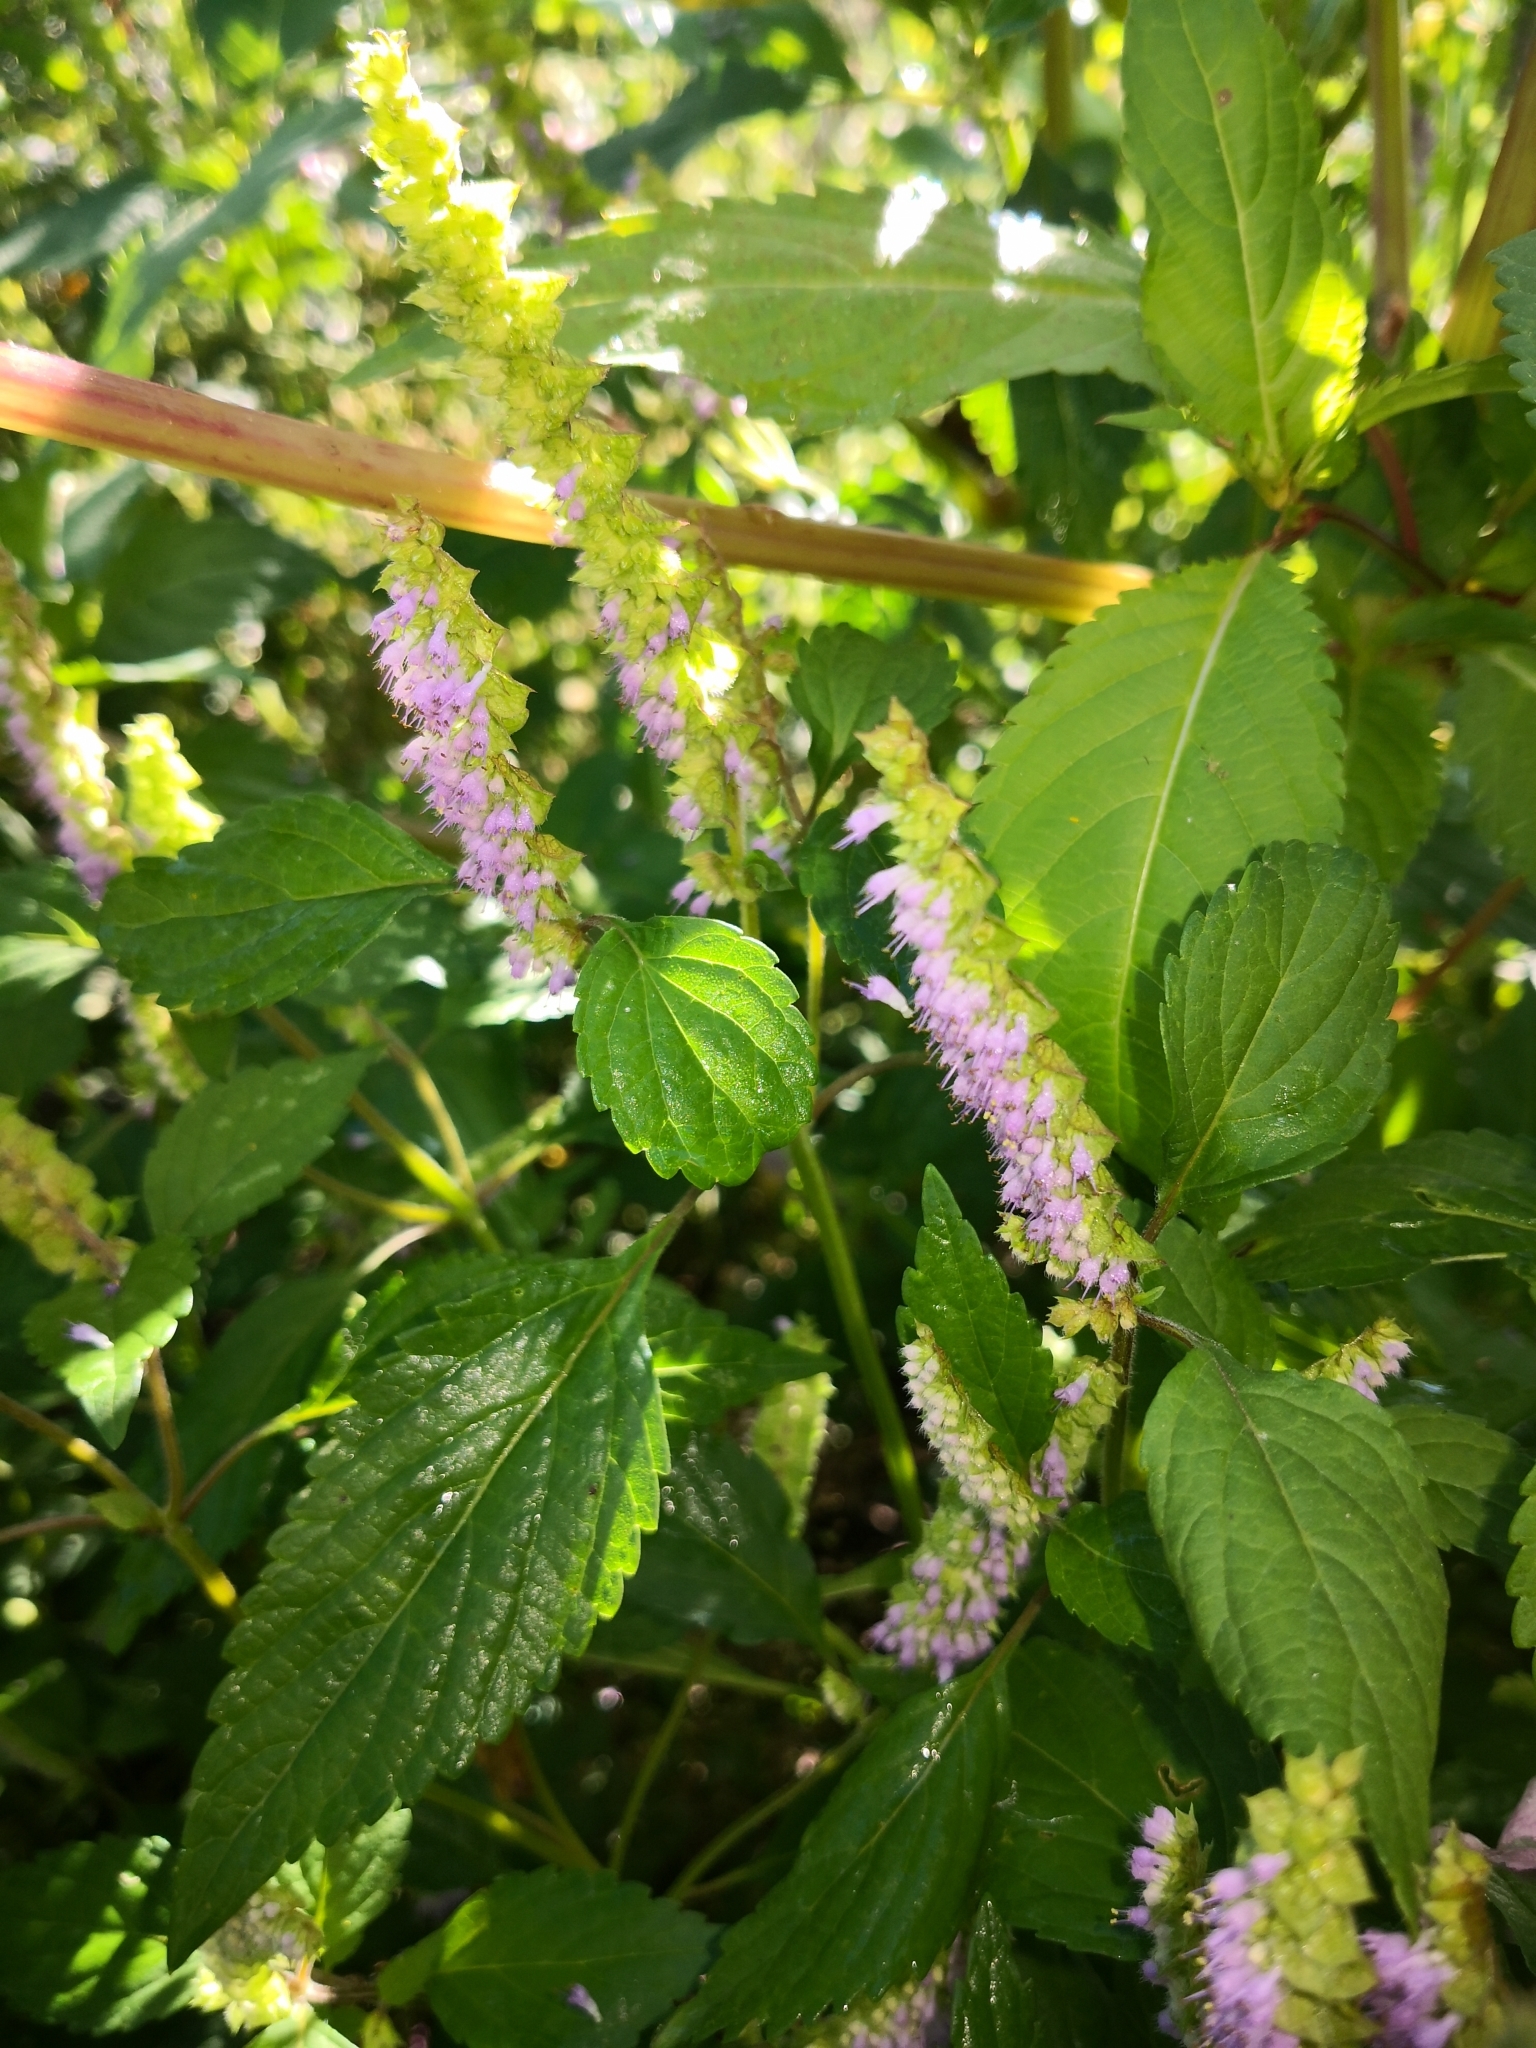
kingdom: Plantae
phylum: Tracheophyta
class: Magnoliopsida
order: Lamiales
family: Lamiaceae
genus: Elsholtzia
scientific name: Elsholtzia ciliata
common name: Ciliate elsholtzia
